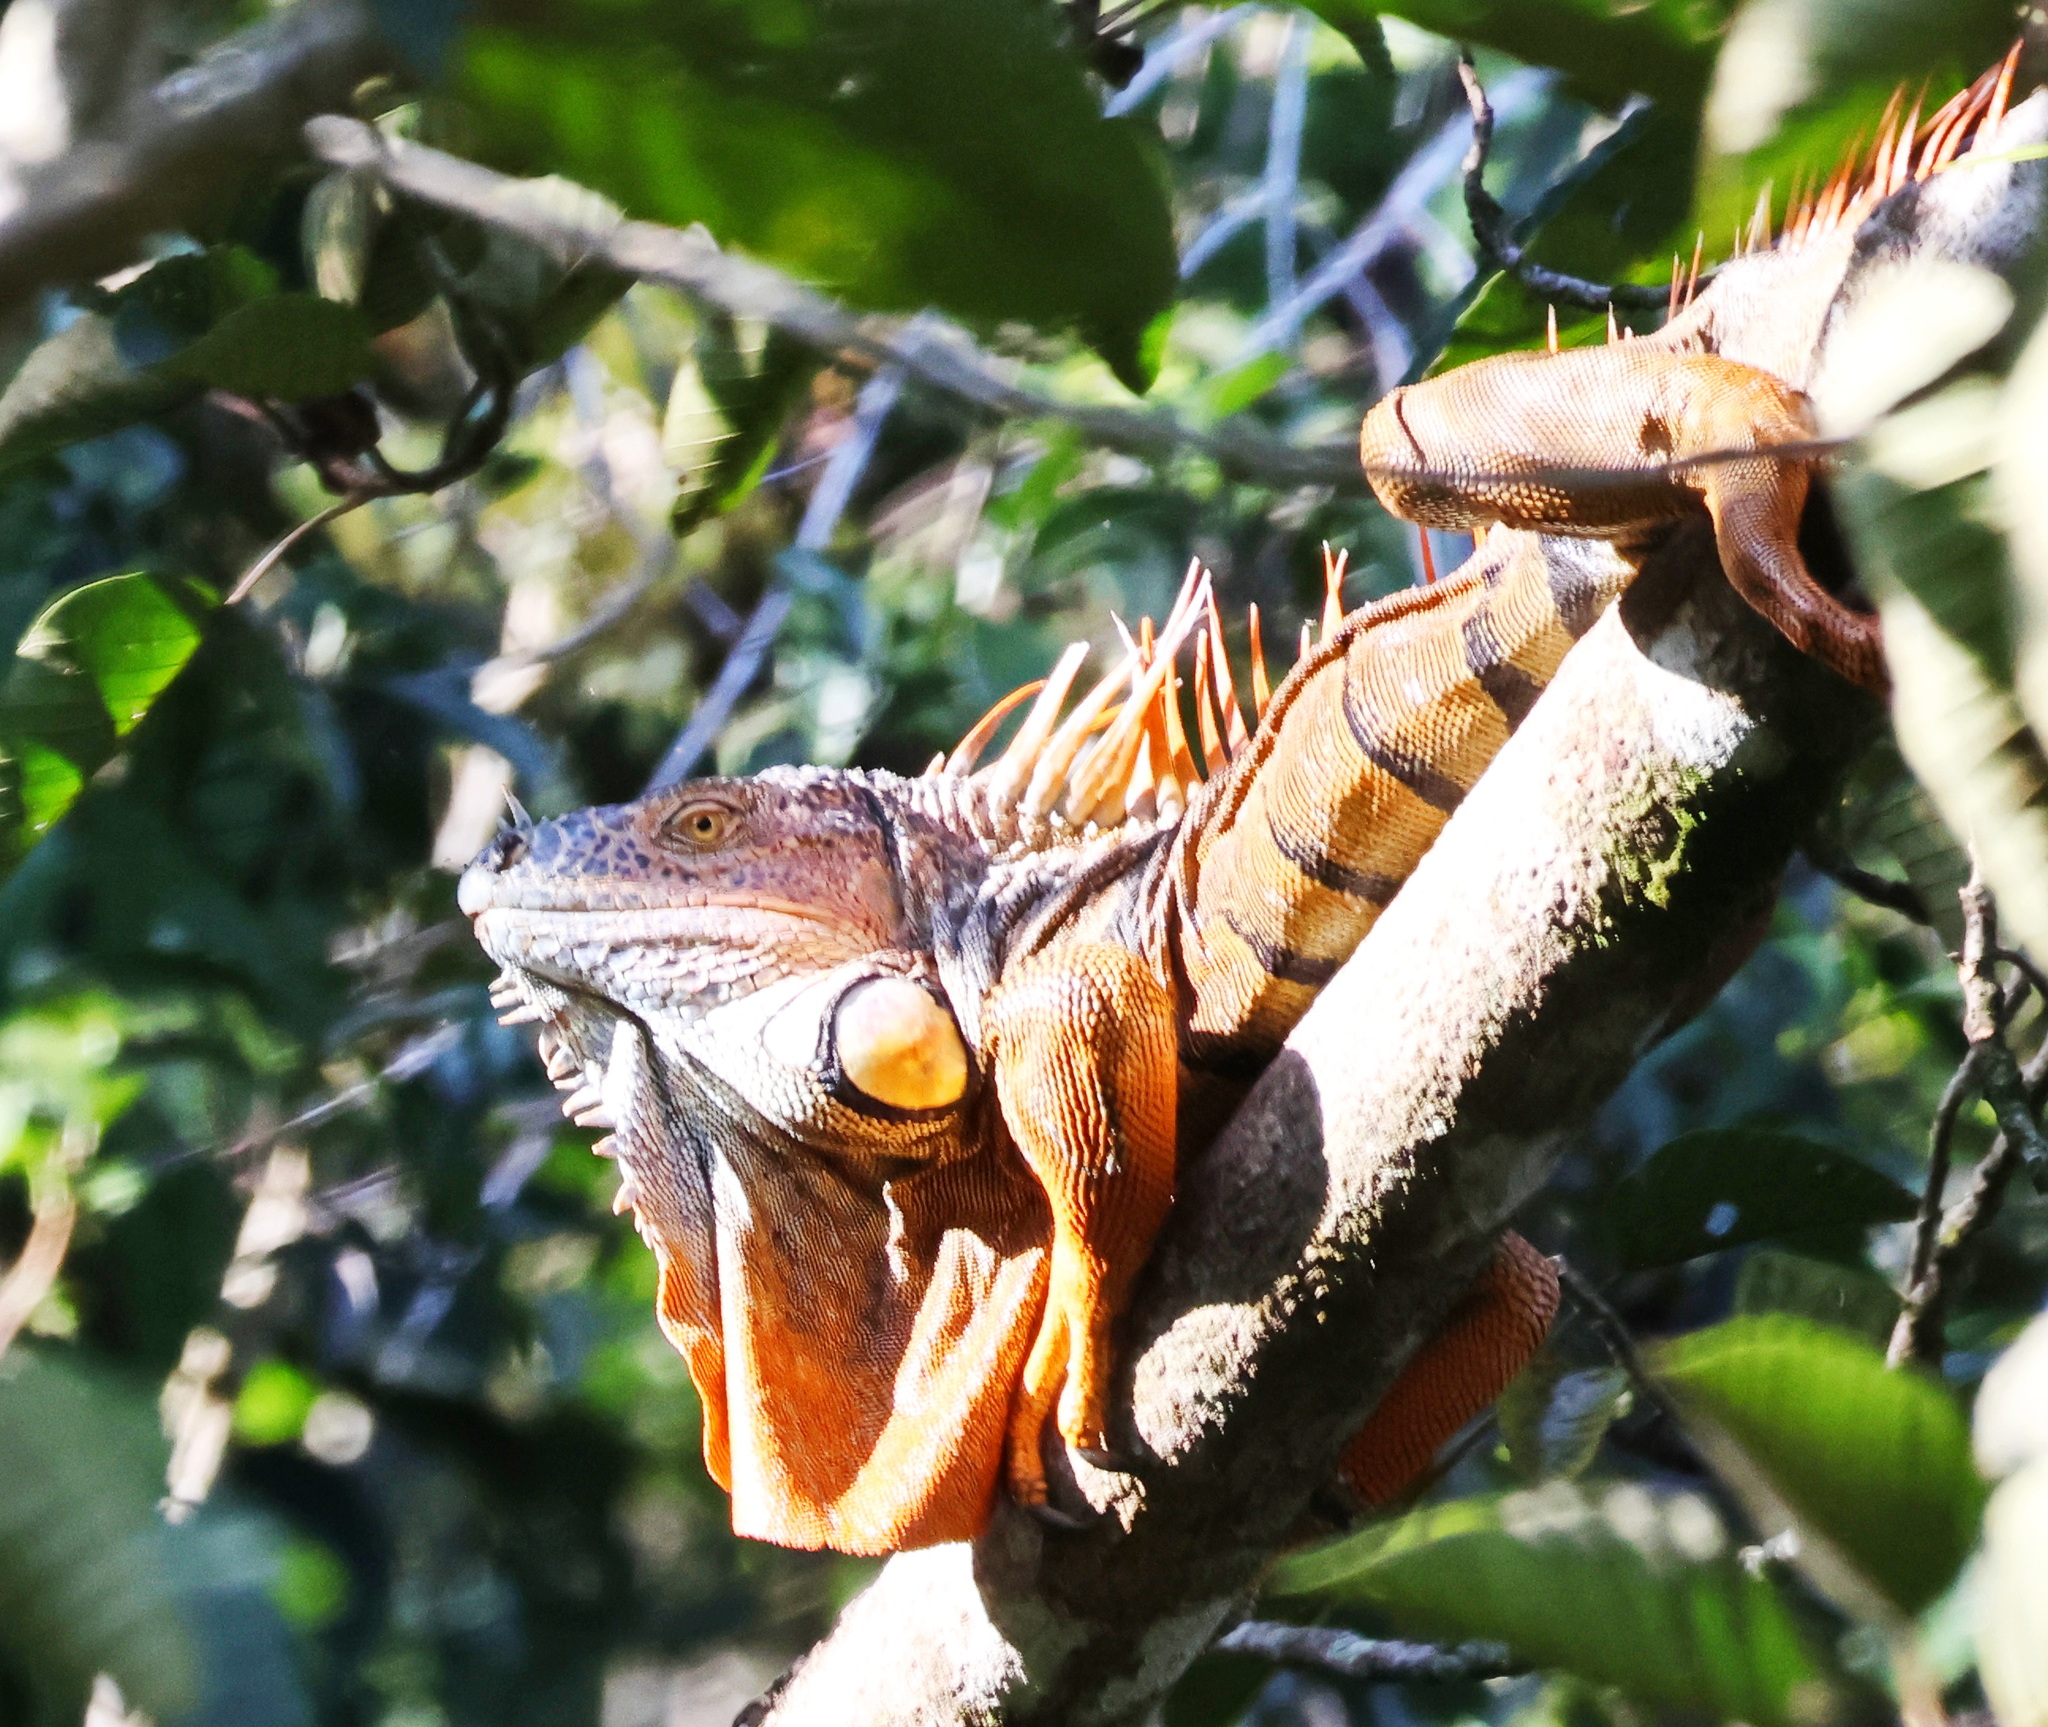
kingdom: Animalia
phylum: Chordata
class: Squamata
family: Iguanidae
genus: Iguana
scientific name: Iguana iguana
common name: Green iguana
